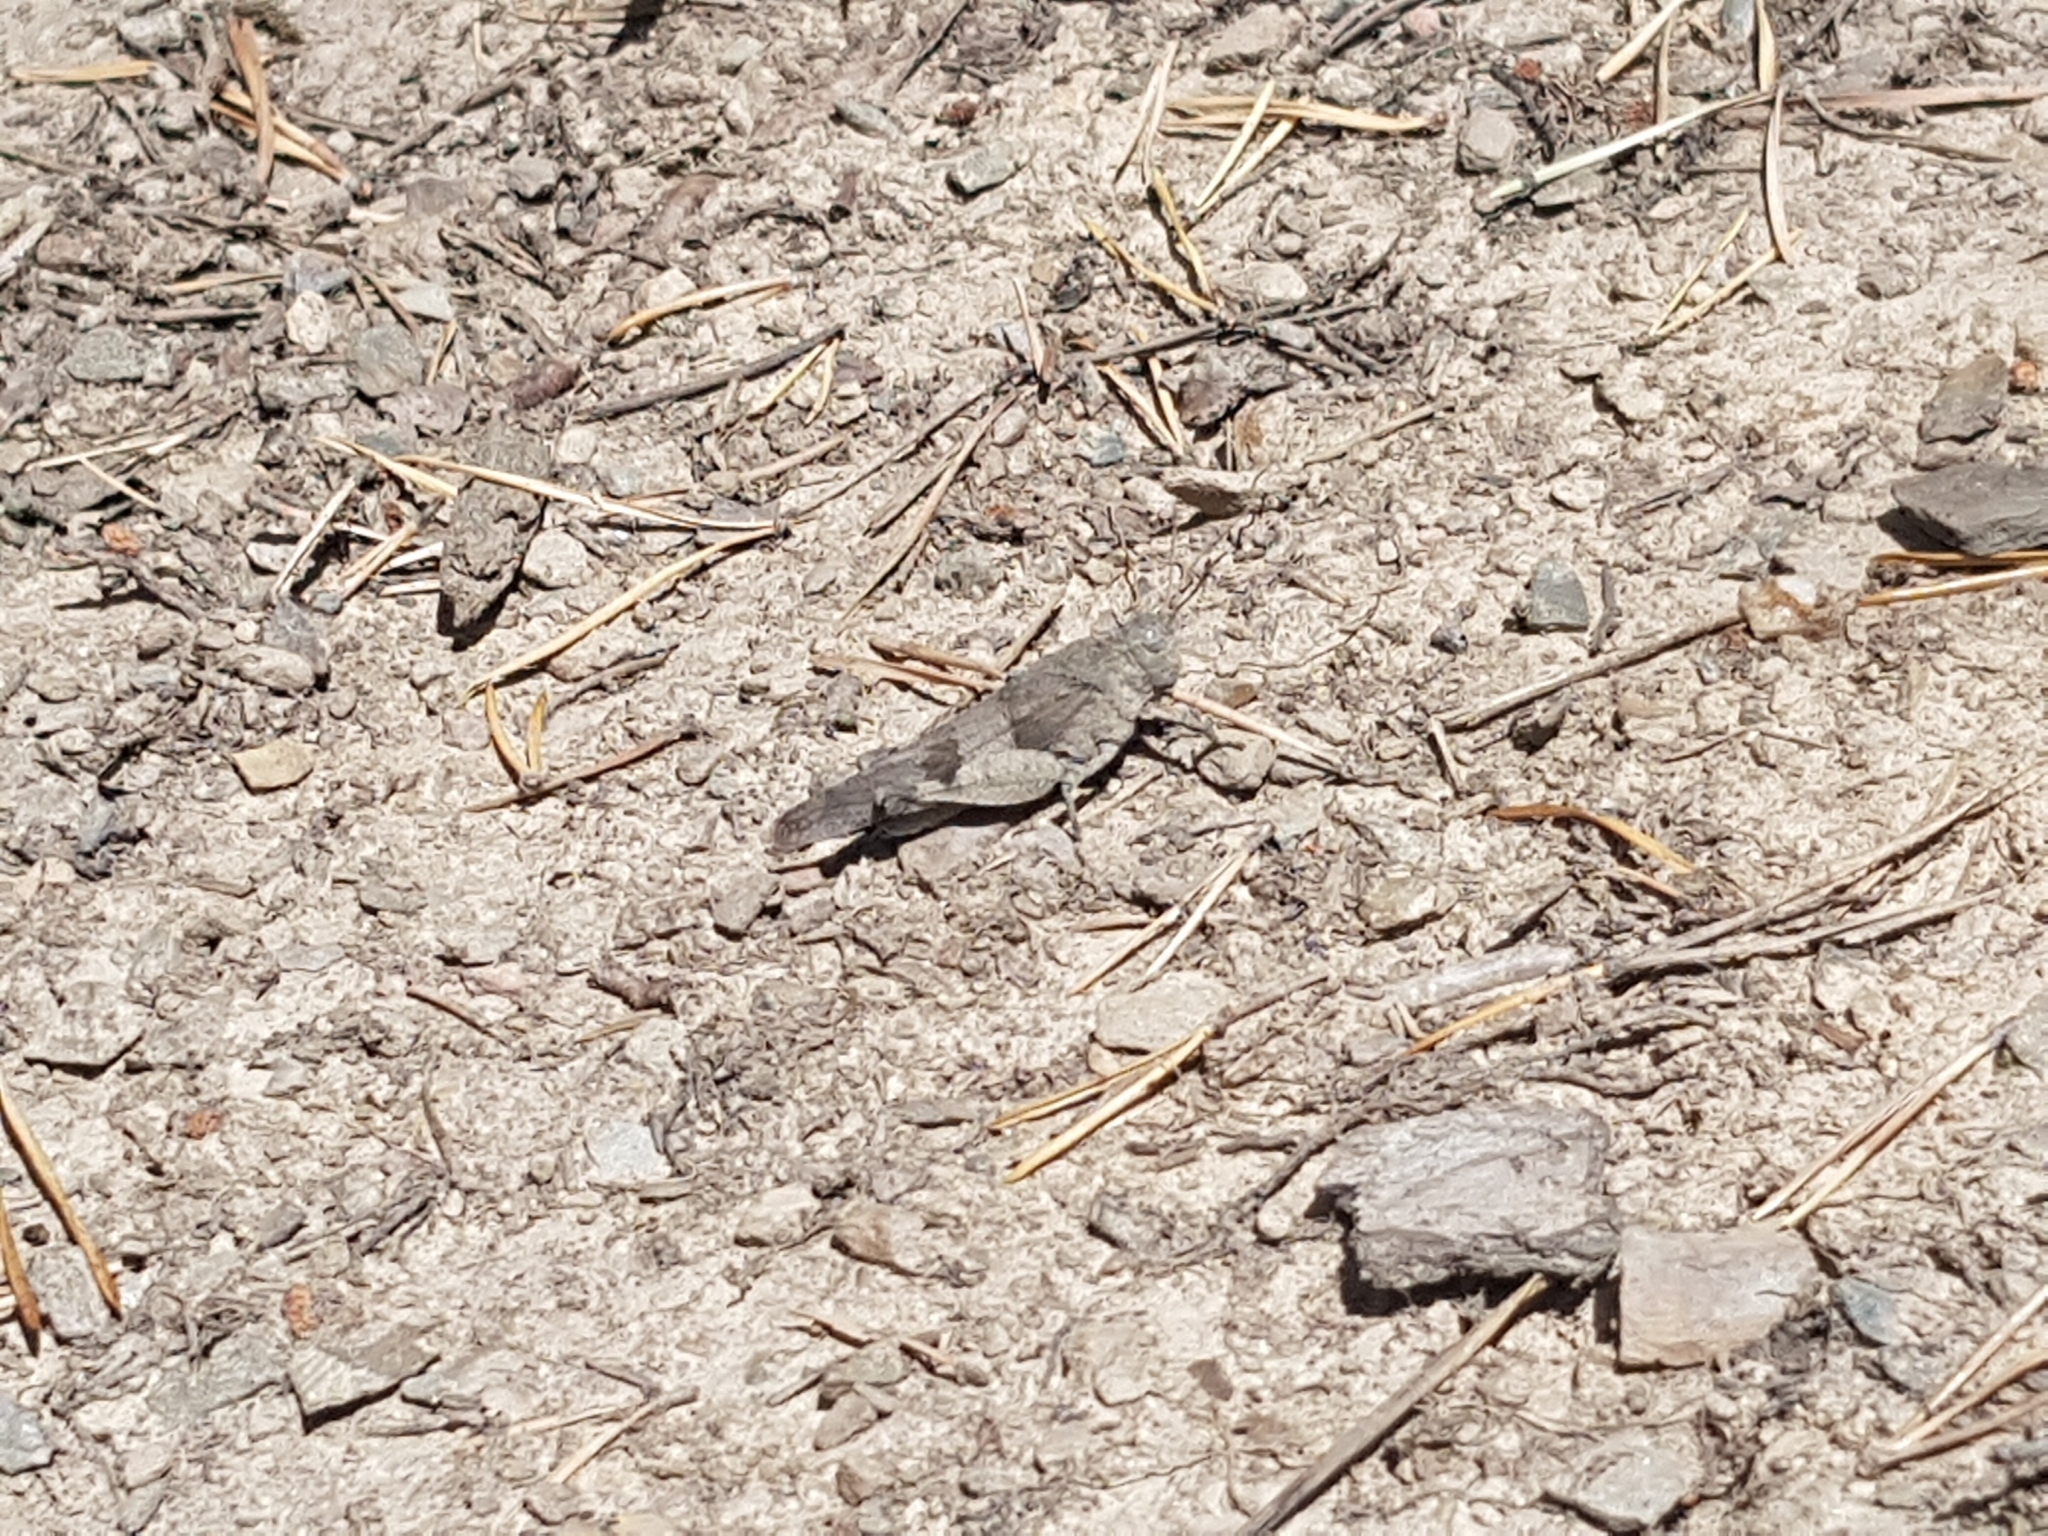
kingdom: Animalia
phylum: Arthropoda
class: Insecta
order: Orthoptera
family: Acrididae
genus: Oedipoda
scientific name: Oedipoda caerulescens
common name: Blue-winged grasshopper
